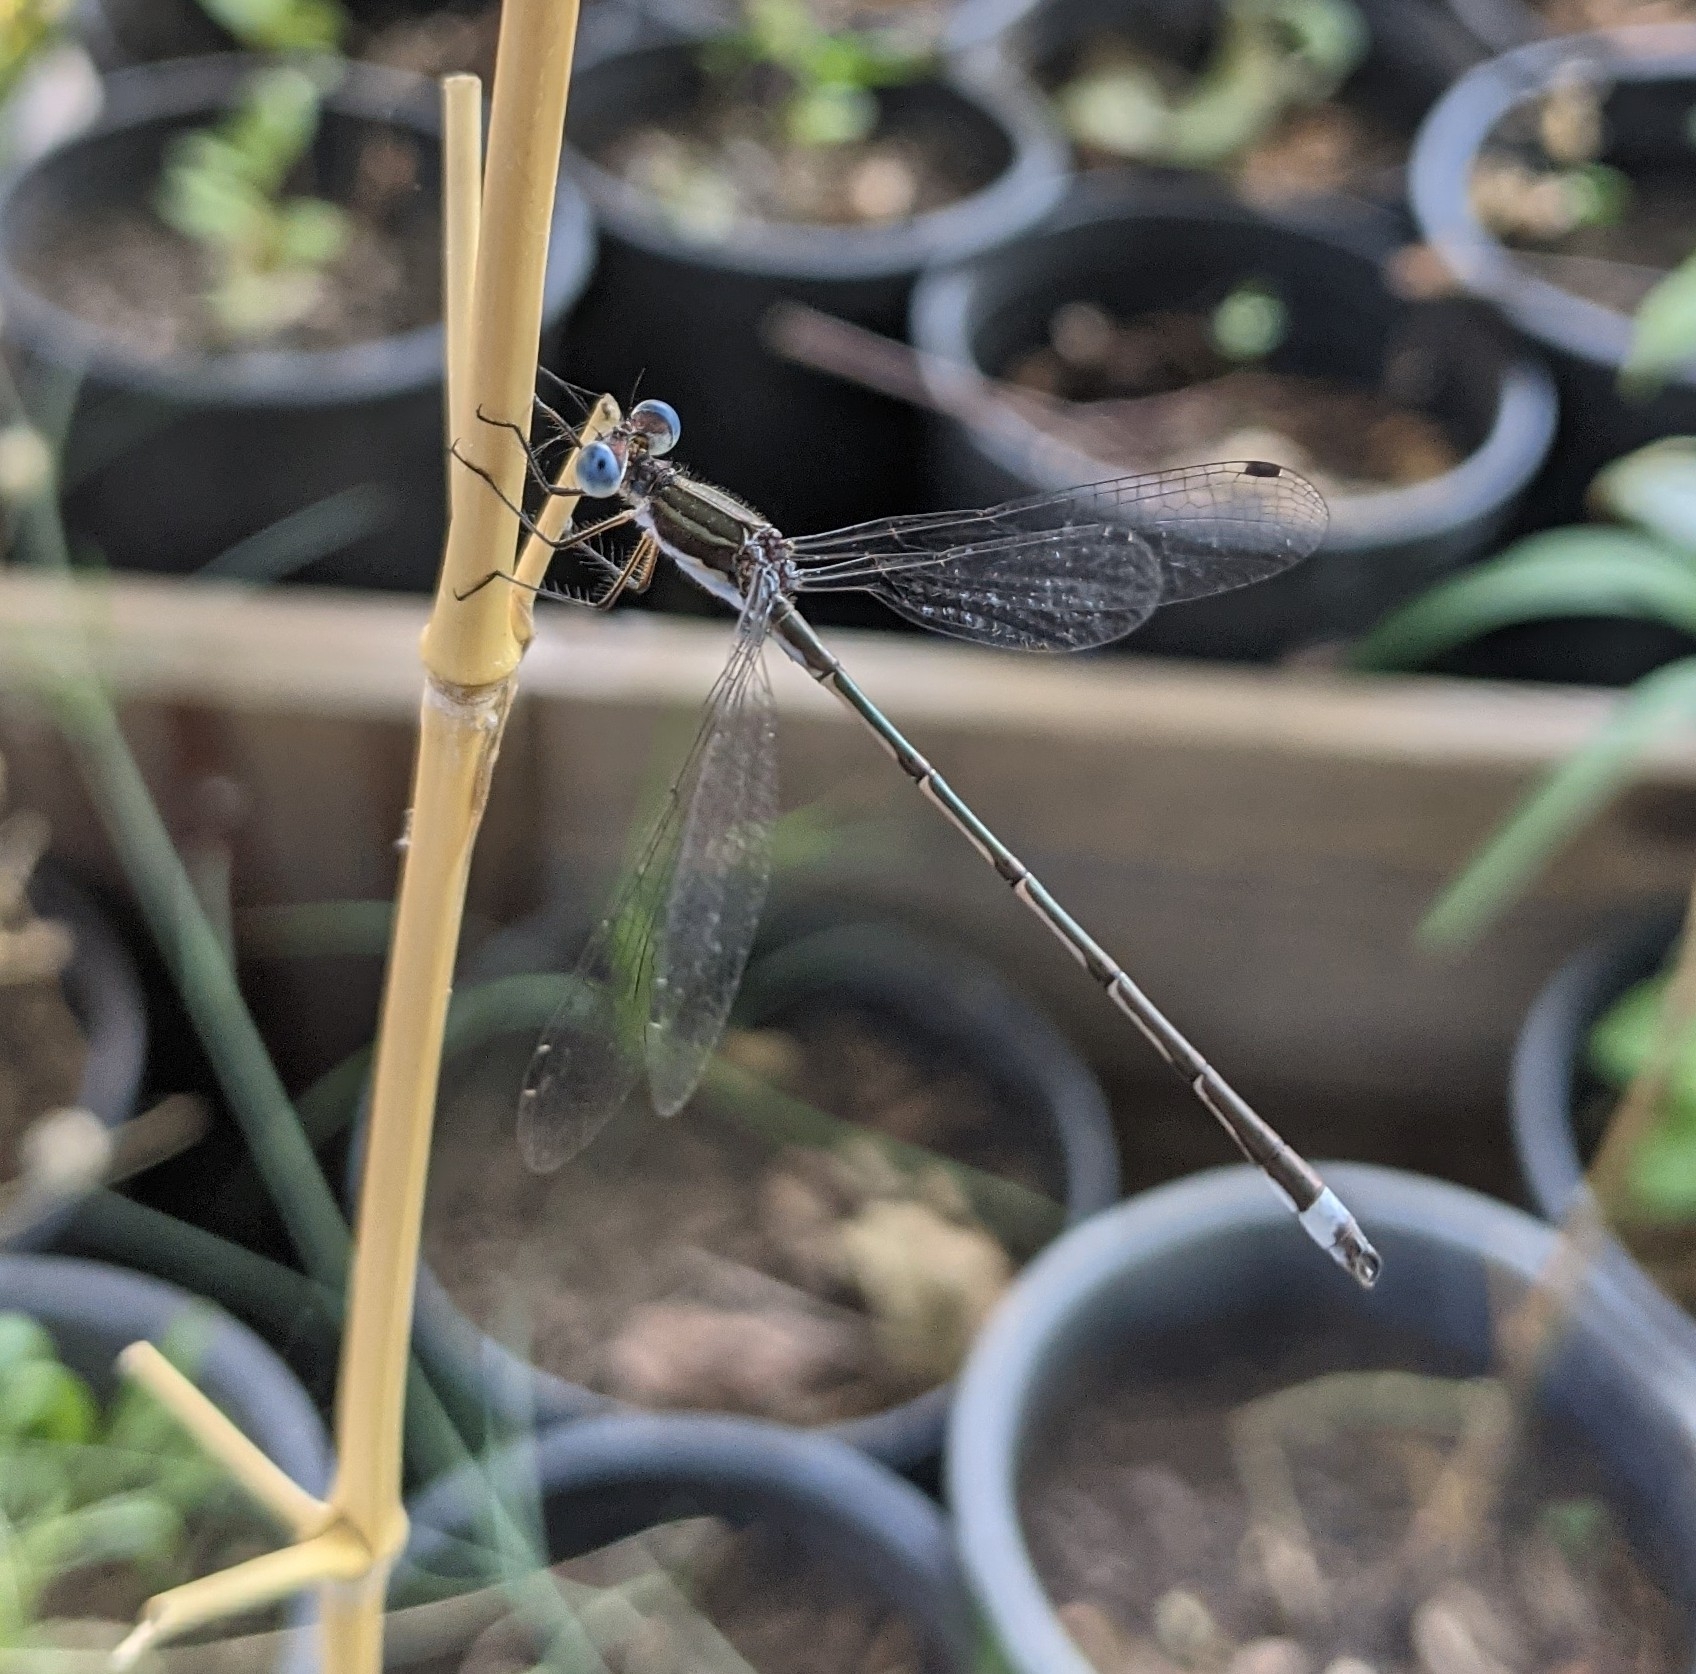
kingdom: Animalia
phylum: Arthropoda
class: Insecta
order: Odonata
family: Lestidae
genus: Lestes
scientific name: Lestes australis
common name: Southern spreadwing
